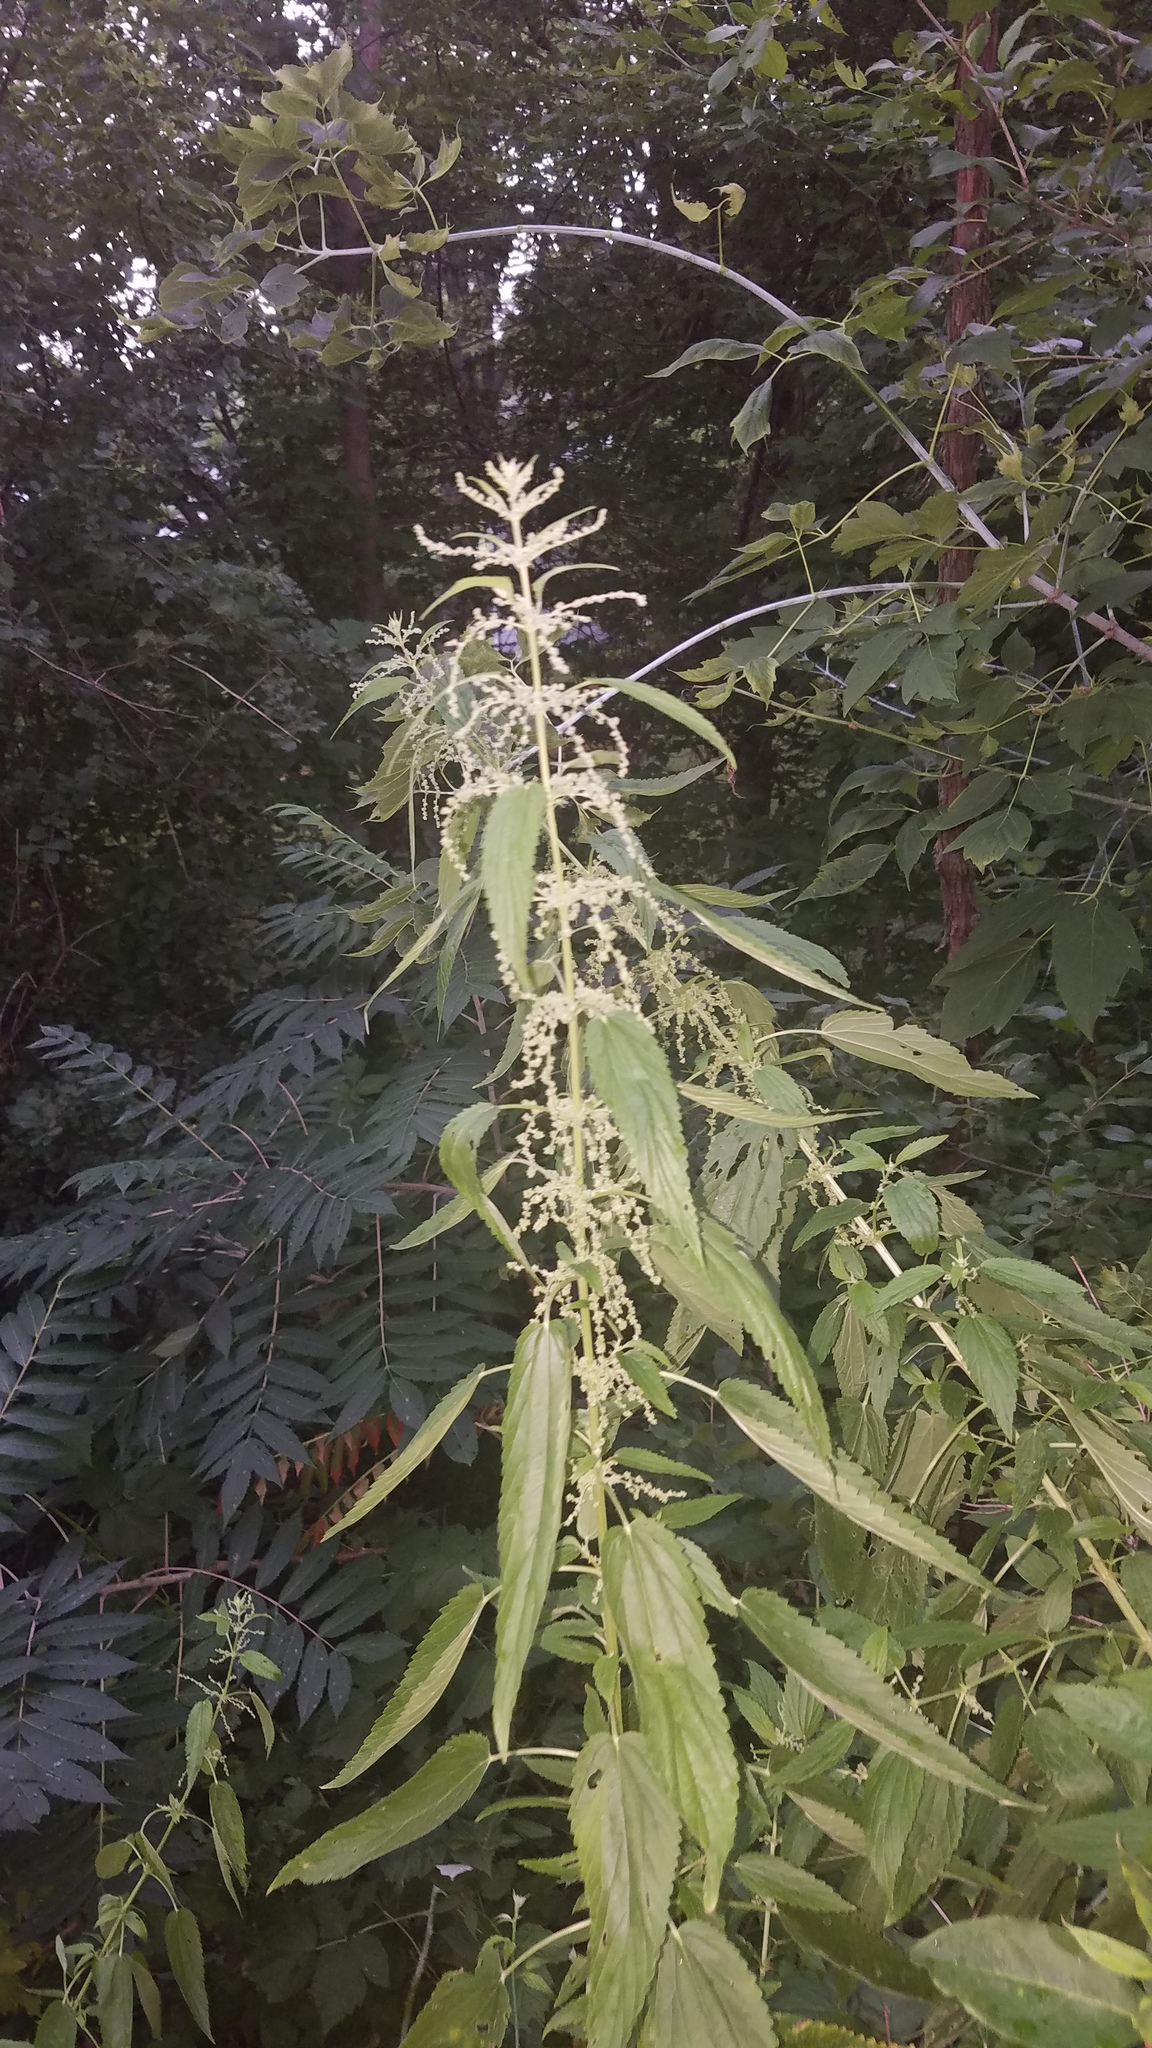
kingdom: Plantae
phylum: Tracheophyta
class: Magnoliopsida
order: Rosales
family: Urticaceae
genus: Urtica
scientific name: Urtica gracilis
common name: Slender stinging nettle
